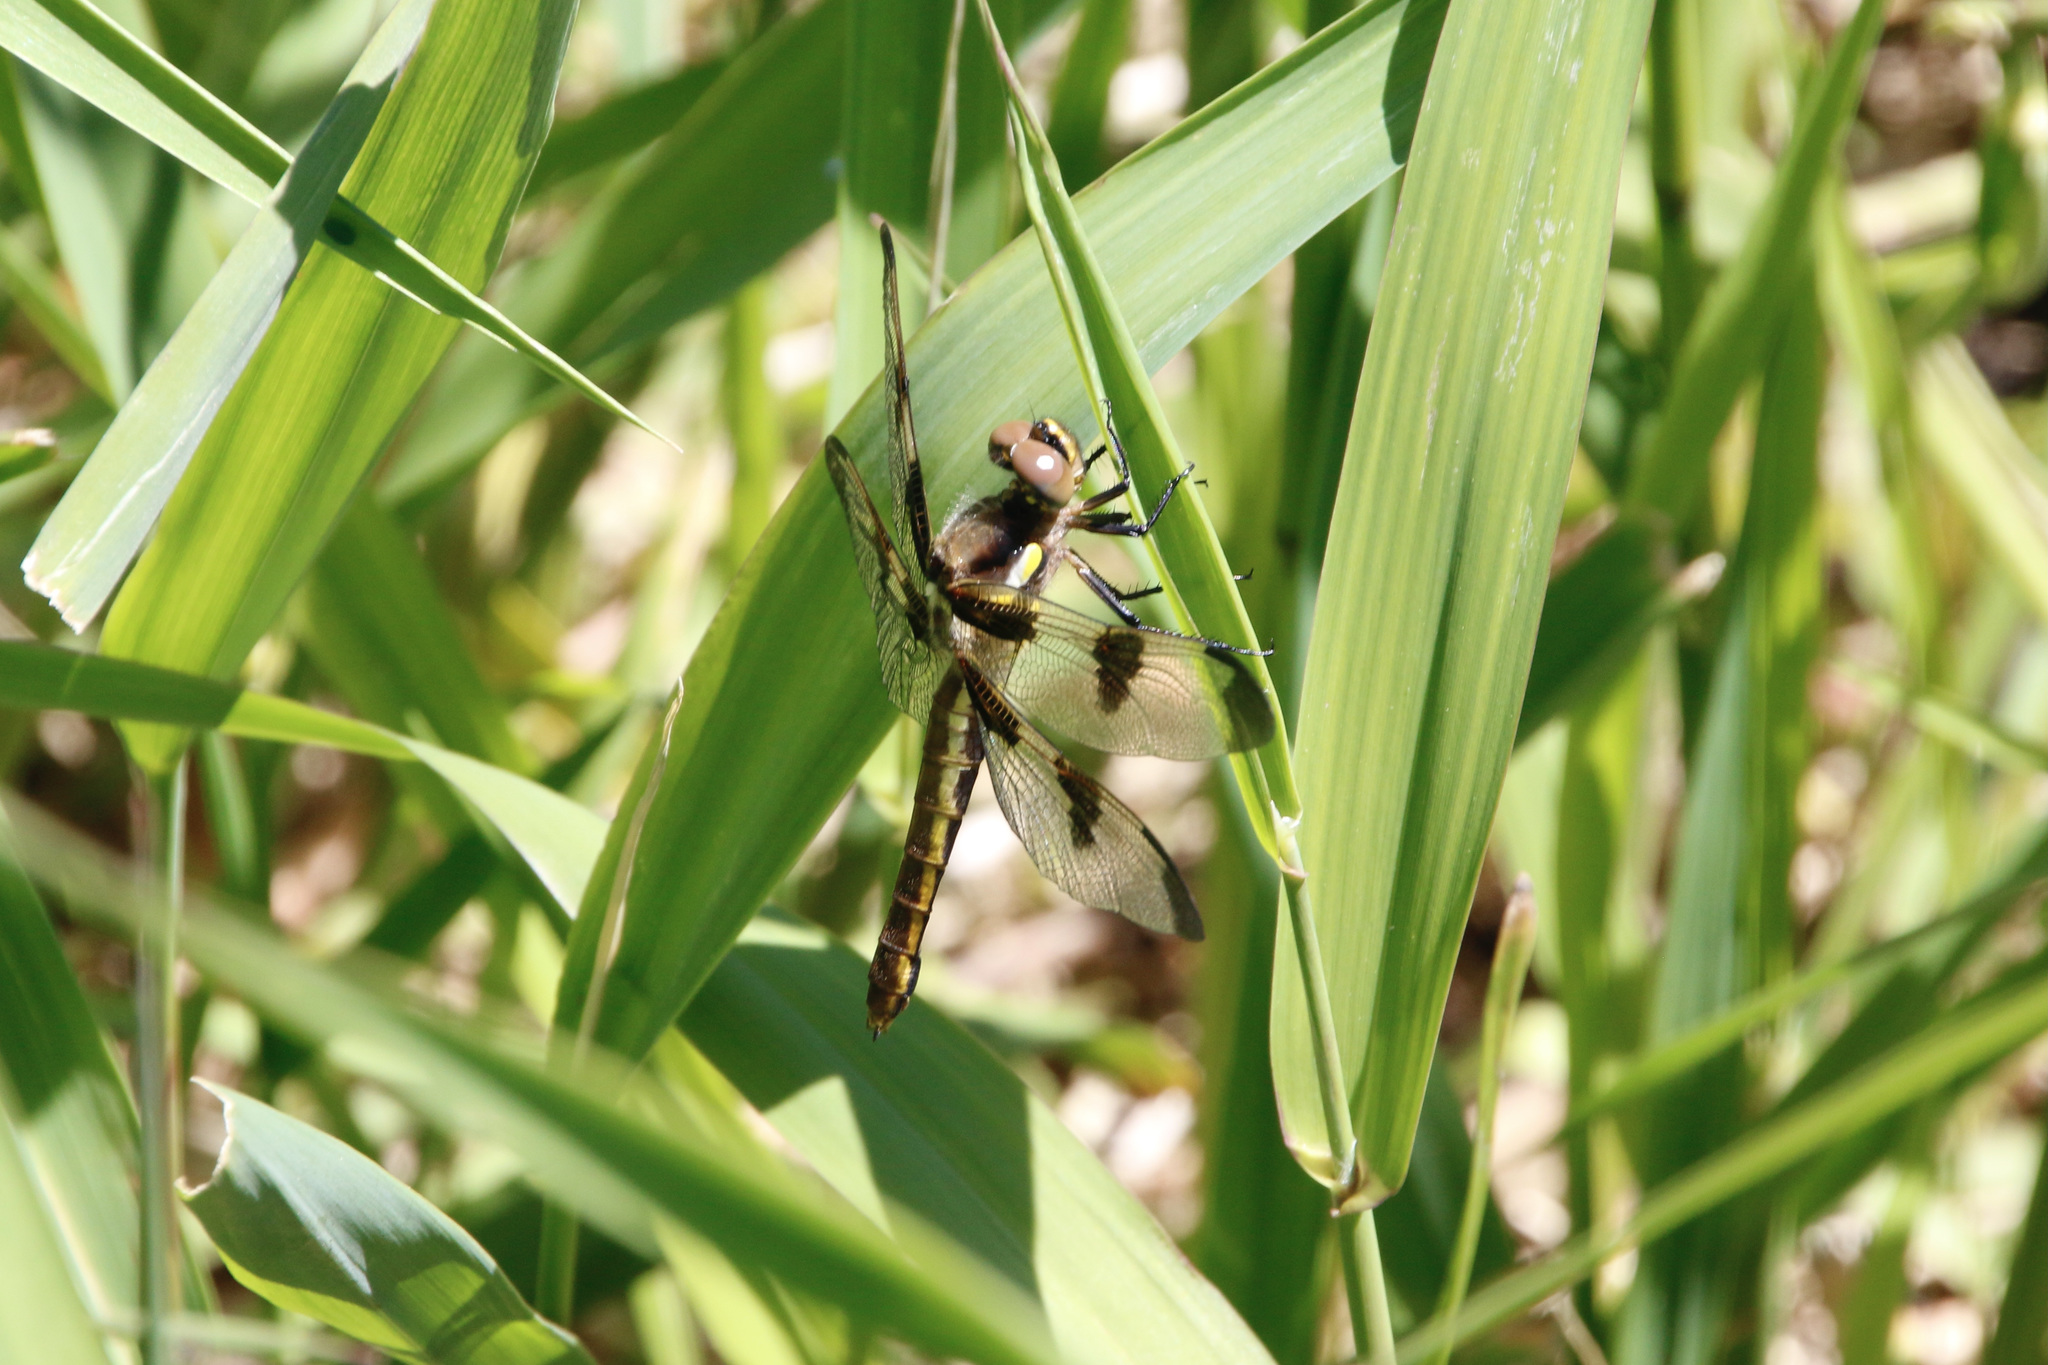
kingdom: Animalia
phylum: Arthropoda
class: Insecta
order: Odonata
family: Libellulidae
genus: Libellula
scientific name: Libellula pulchella
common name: Twelve-spotted skimmer
